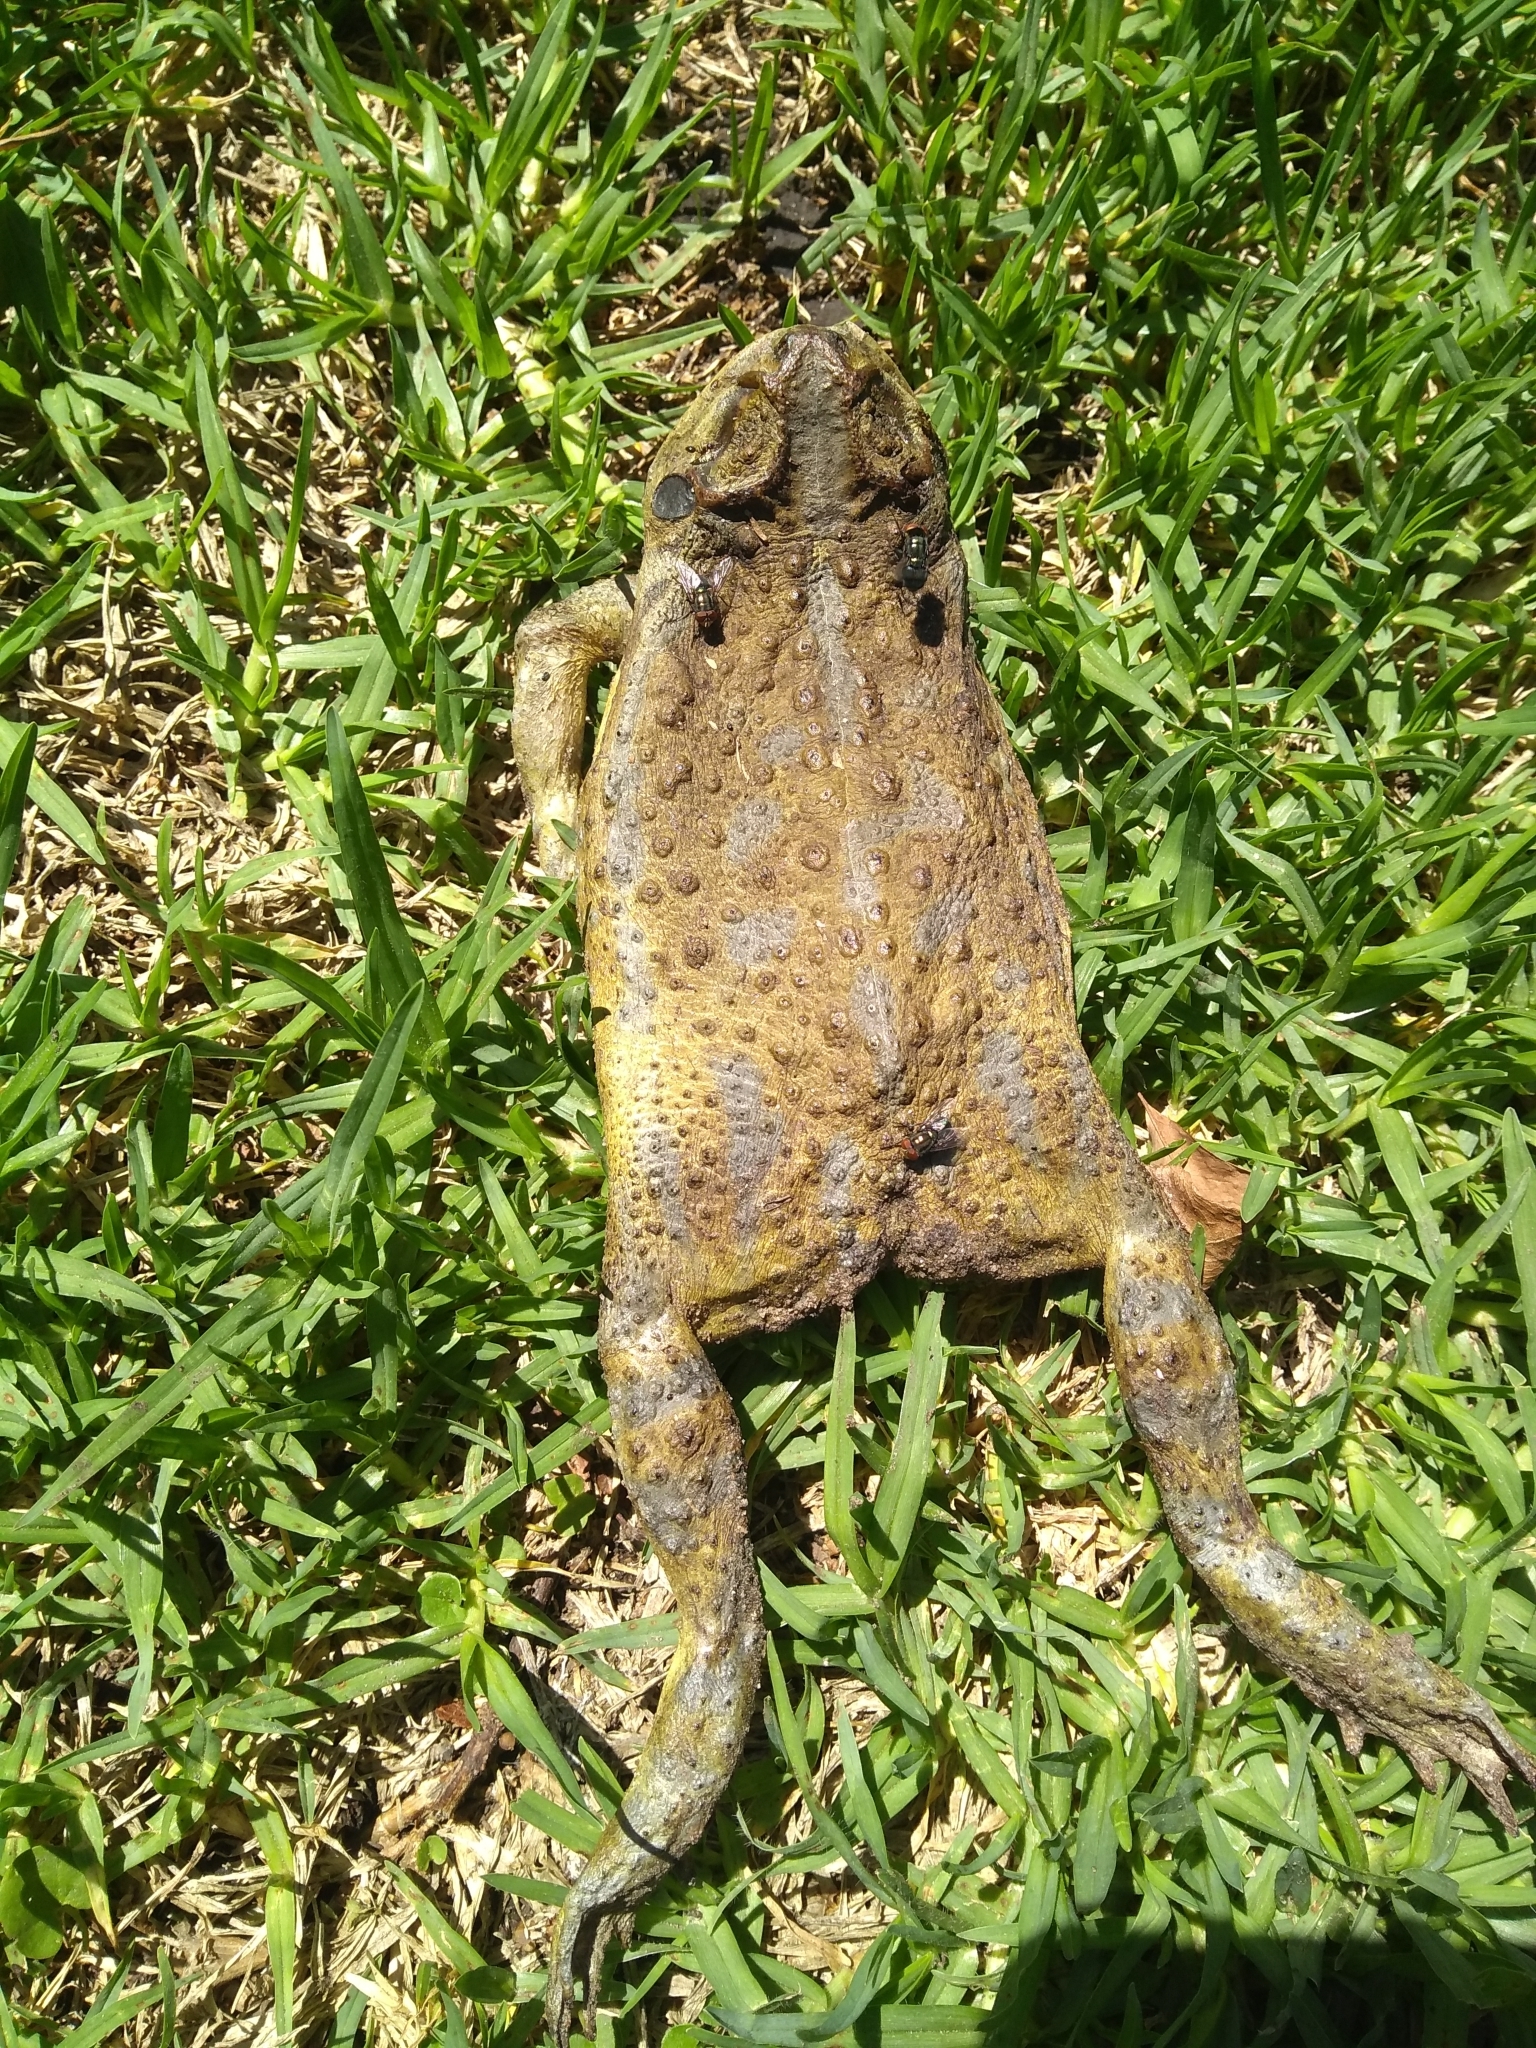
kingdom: Animalia
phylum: Chordata
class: Amphibia
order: Anura
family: Bufonidae
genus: Rhinella
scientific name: Rhinella arenarum
